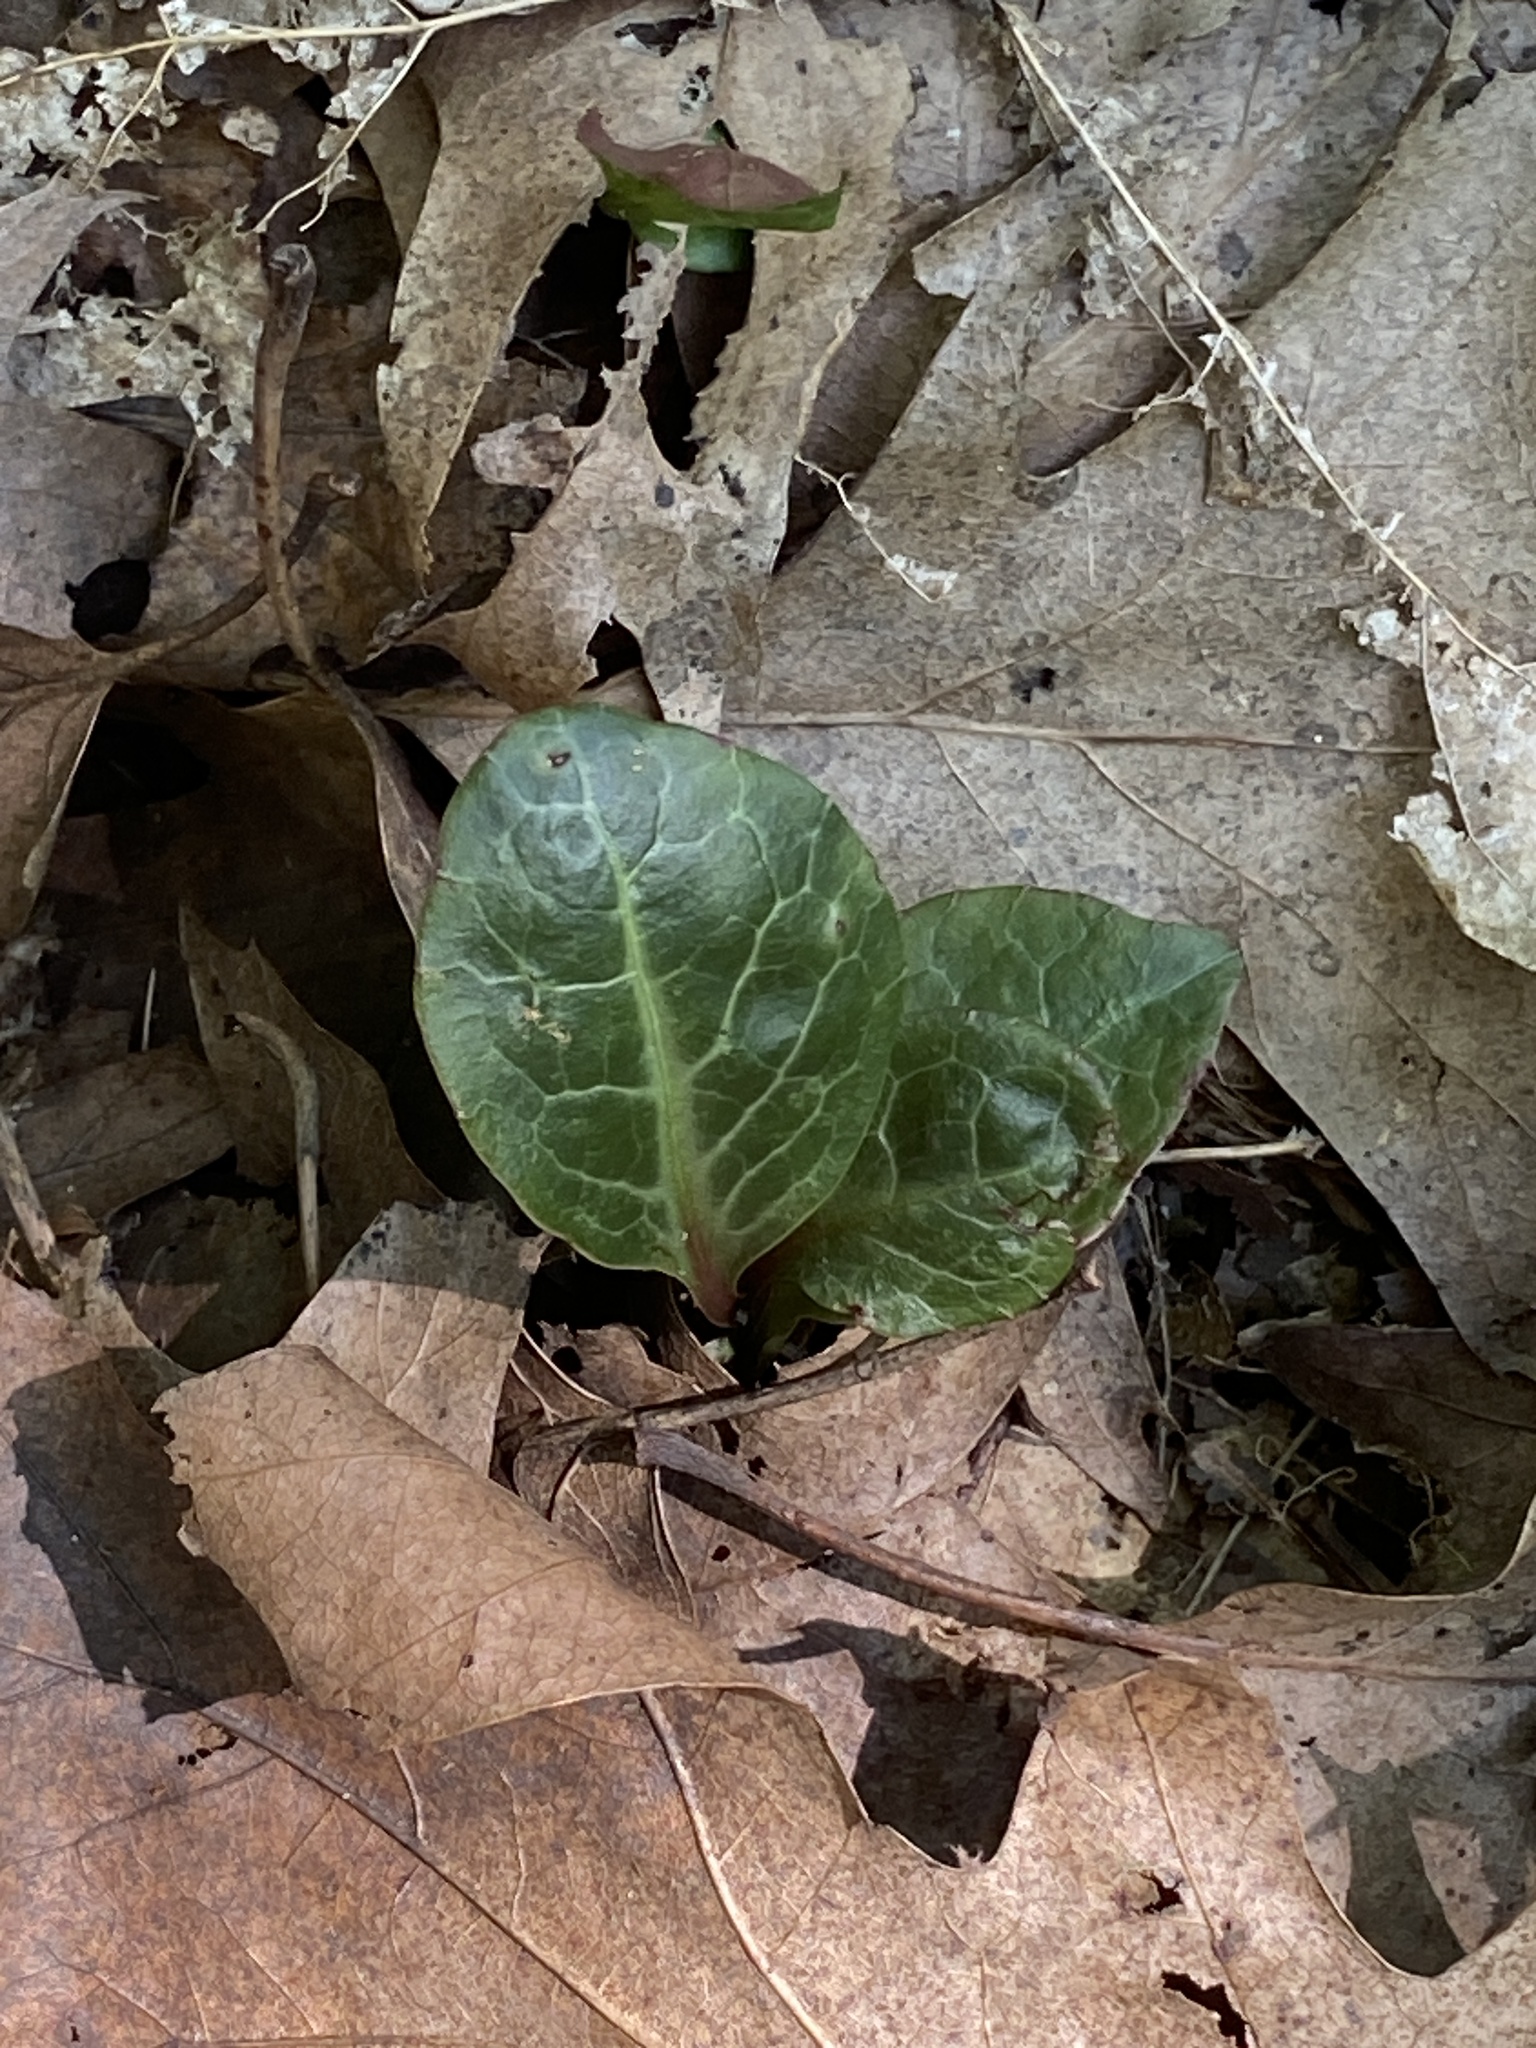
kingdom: Plantae
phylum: Tracheophyta
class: Magnoliopsida
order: Ericales
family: Ericaceae
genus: Pyrola
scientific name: Pyrola americana
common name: American wintergreen
